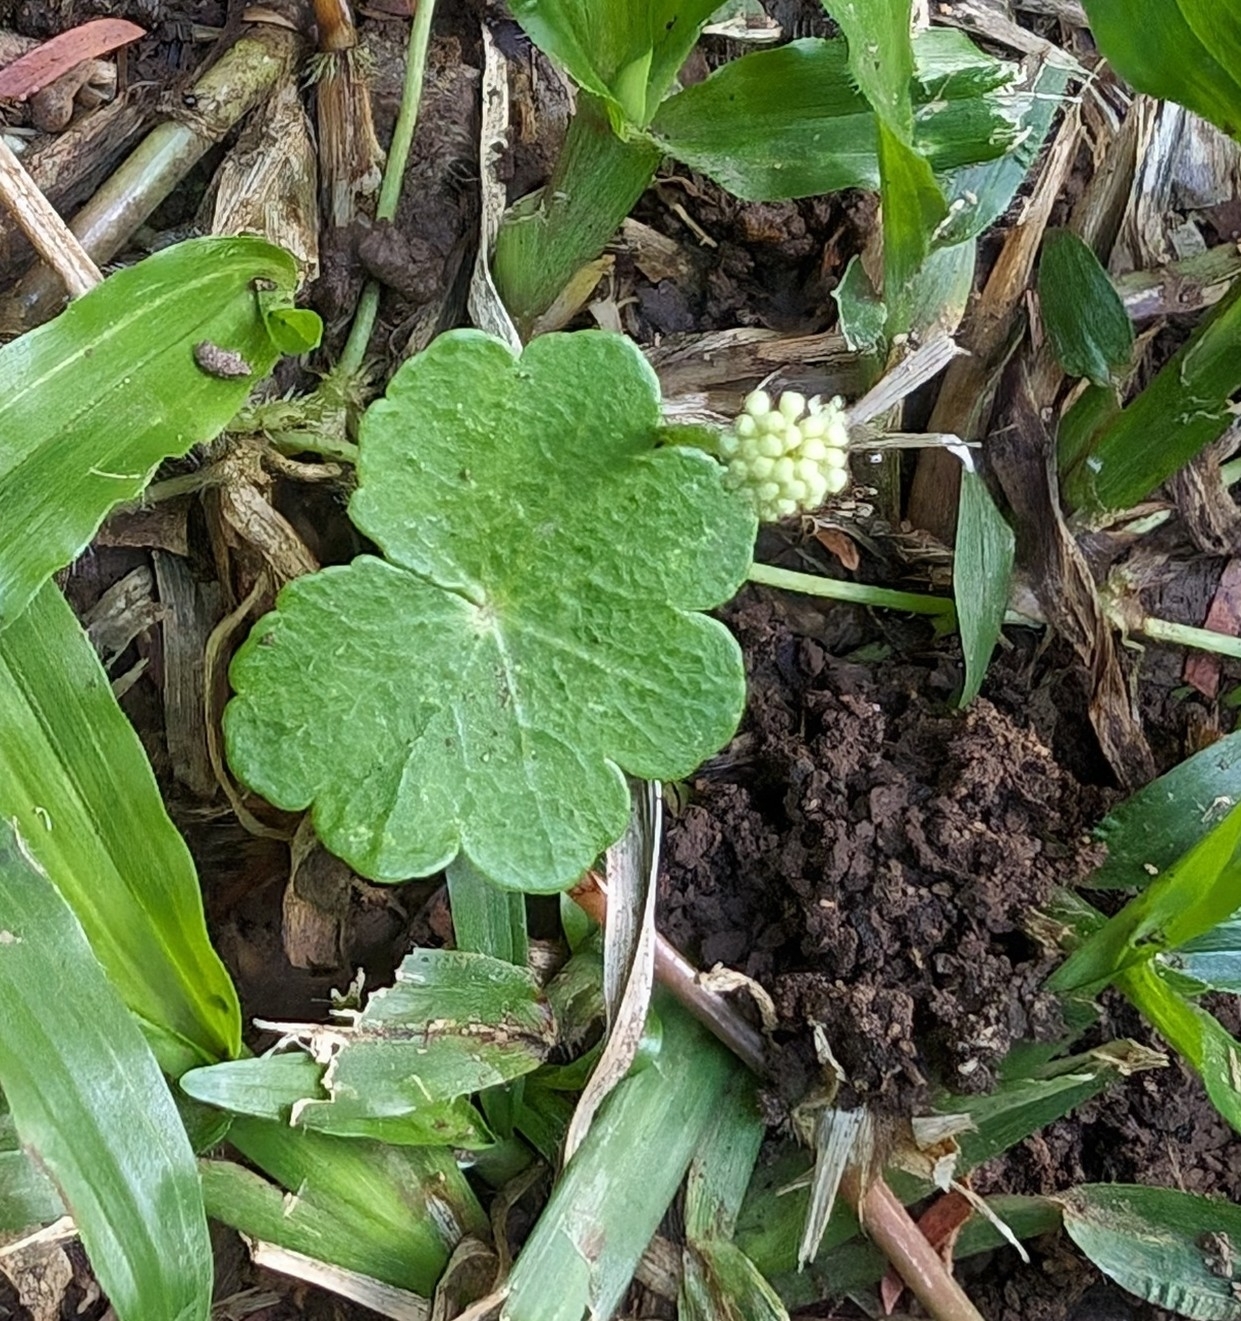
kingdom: Plantae
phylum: Tracheophyta
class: Magnoliopsida
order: Apiales
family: Araliaceae
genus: Hydrocotyle
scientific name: Hydrocotyle leucocephala
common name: Brazilian pennywort
